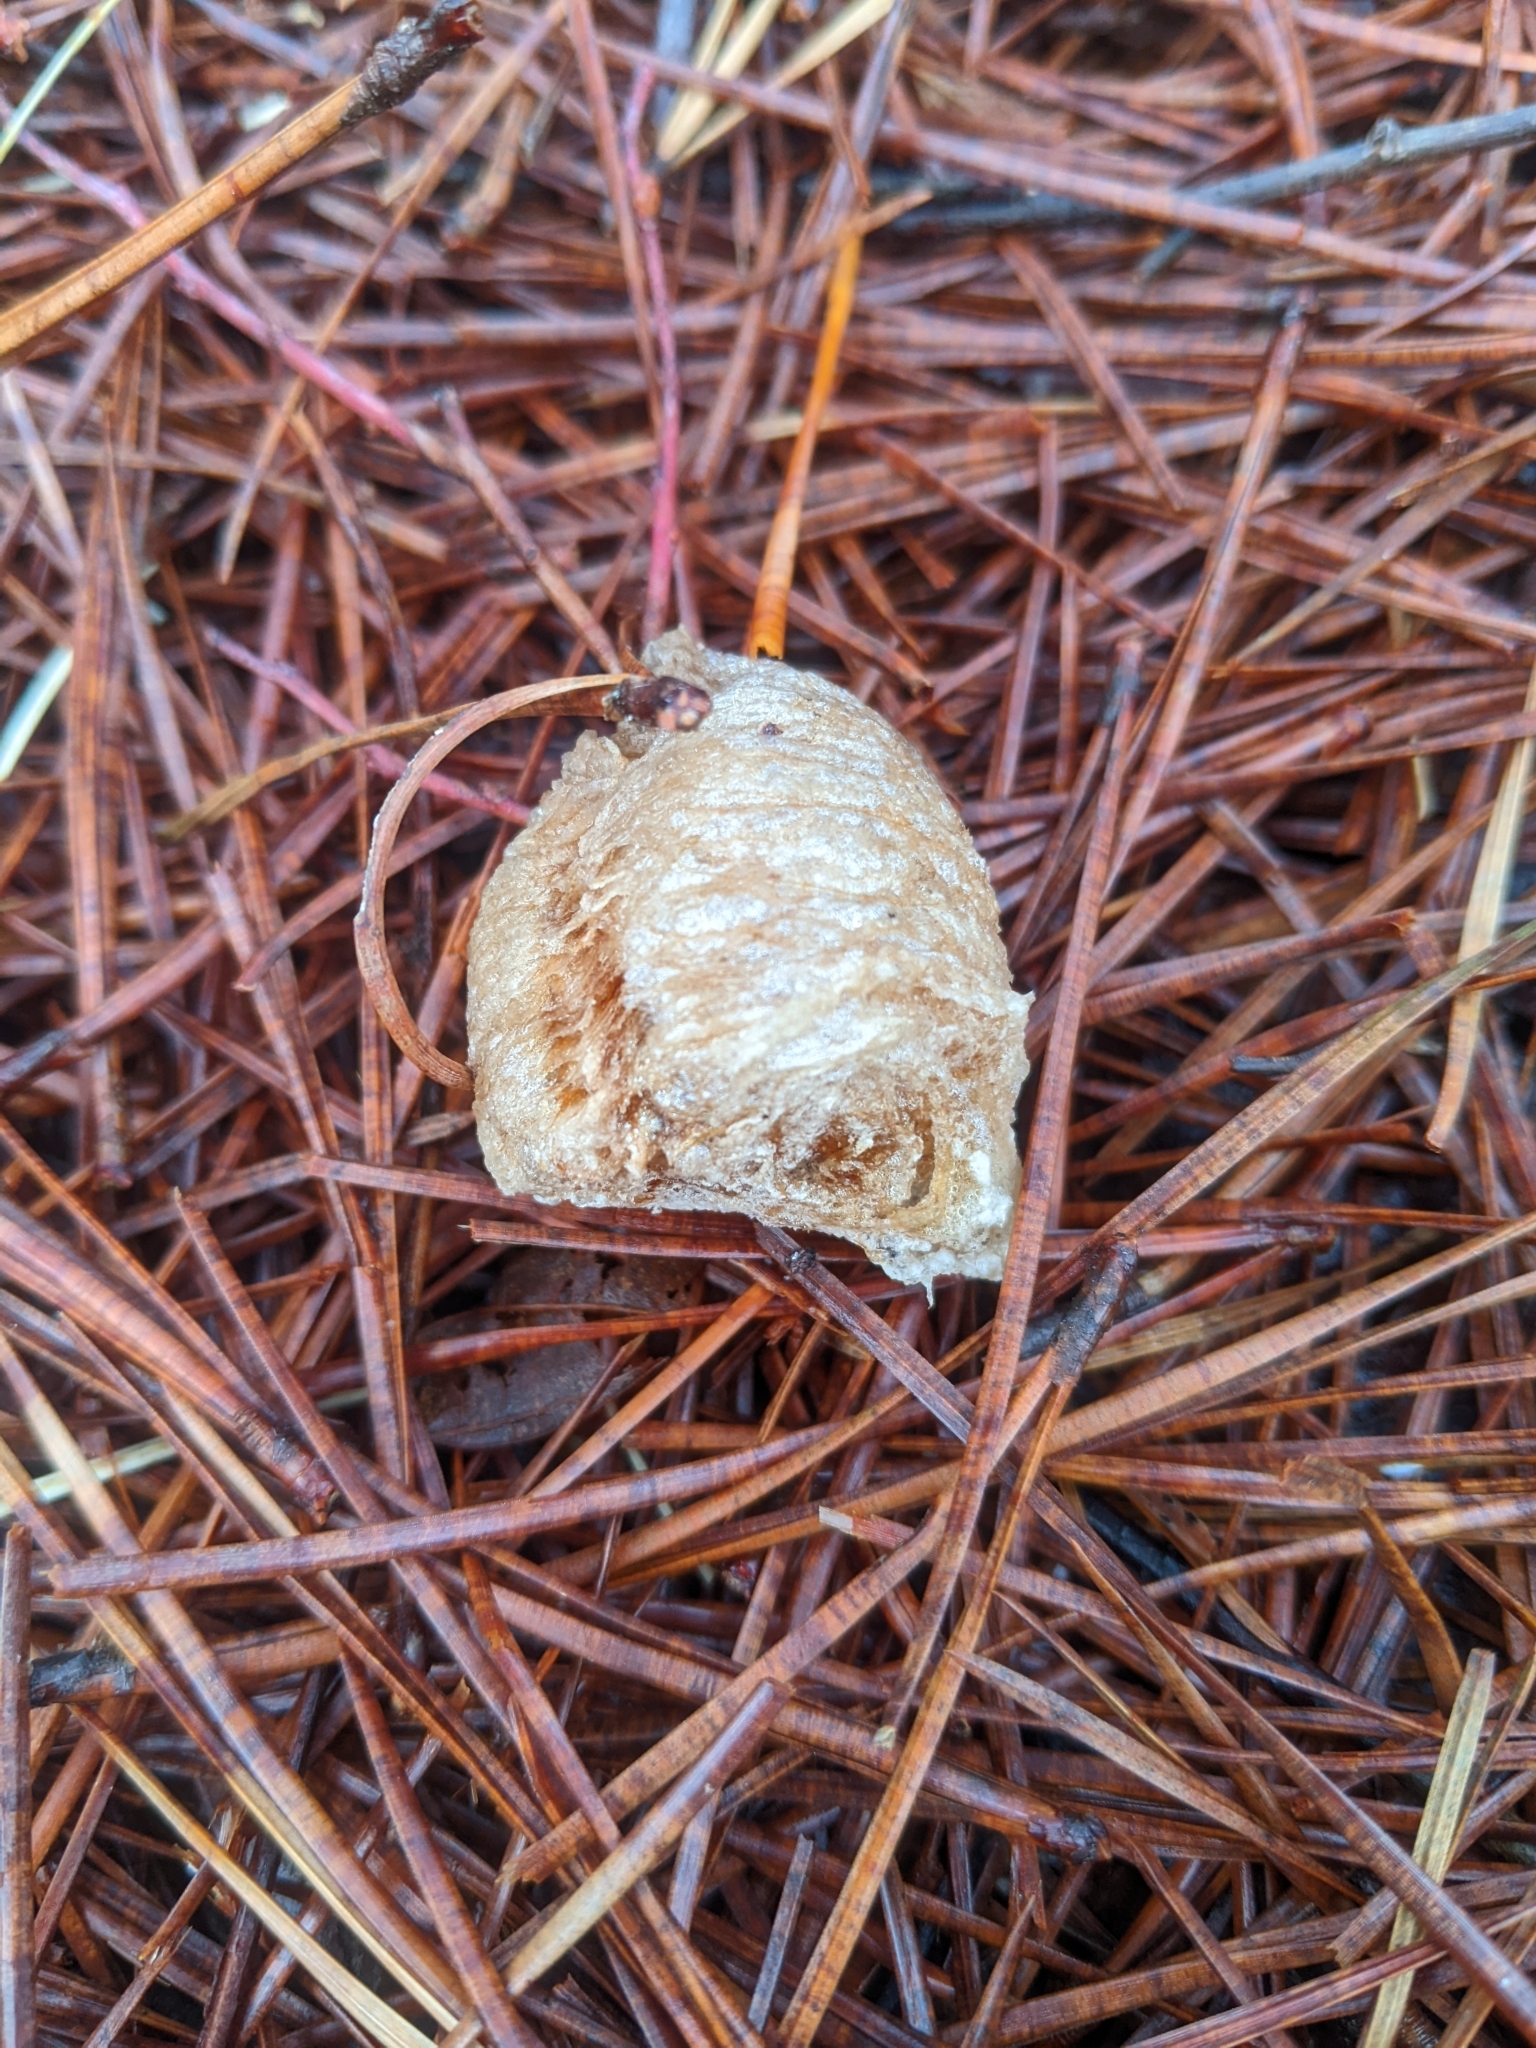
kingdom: Animalia
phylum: Arthropoda
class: Insecta
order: Mantodea
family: Mantidae
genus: Tenodera
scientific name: Tenodera sinensis
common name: Chinese mantis
